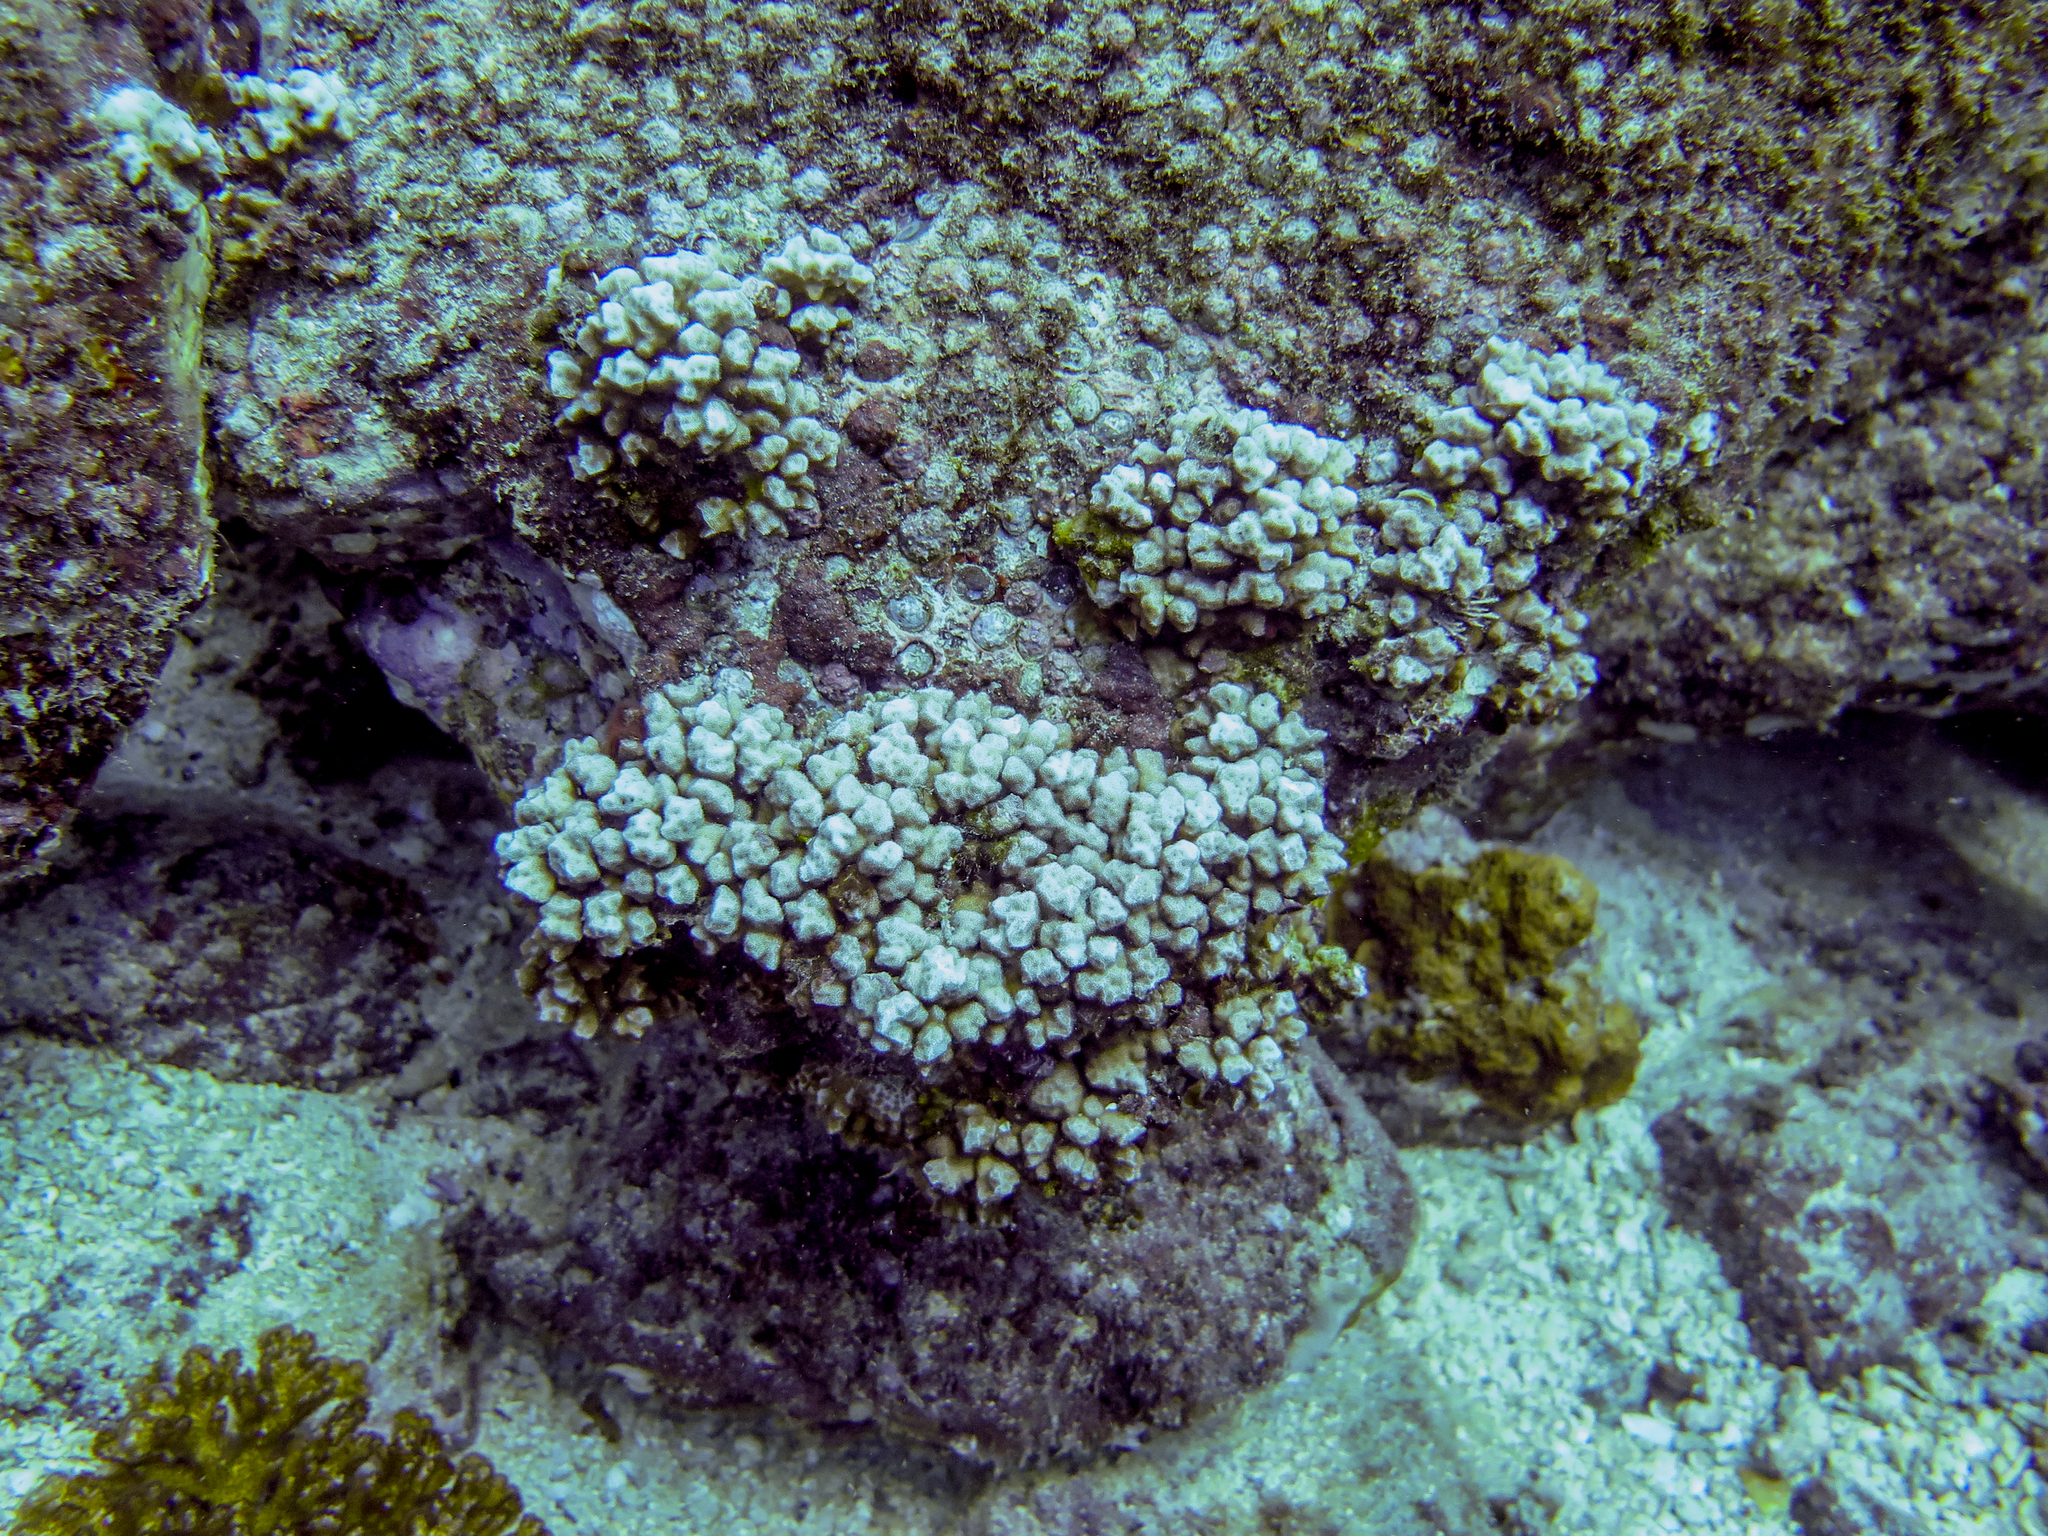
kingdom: Animalia
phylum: Cnidaria
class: Anthozoa
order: Scleractinia
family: Psammocoridae
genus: Psammocora
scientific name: Psammocora stellata
